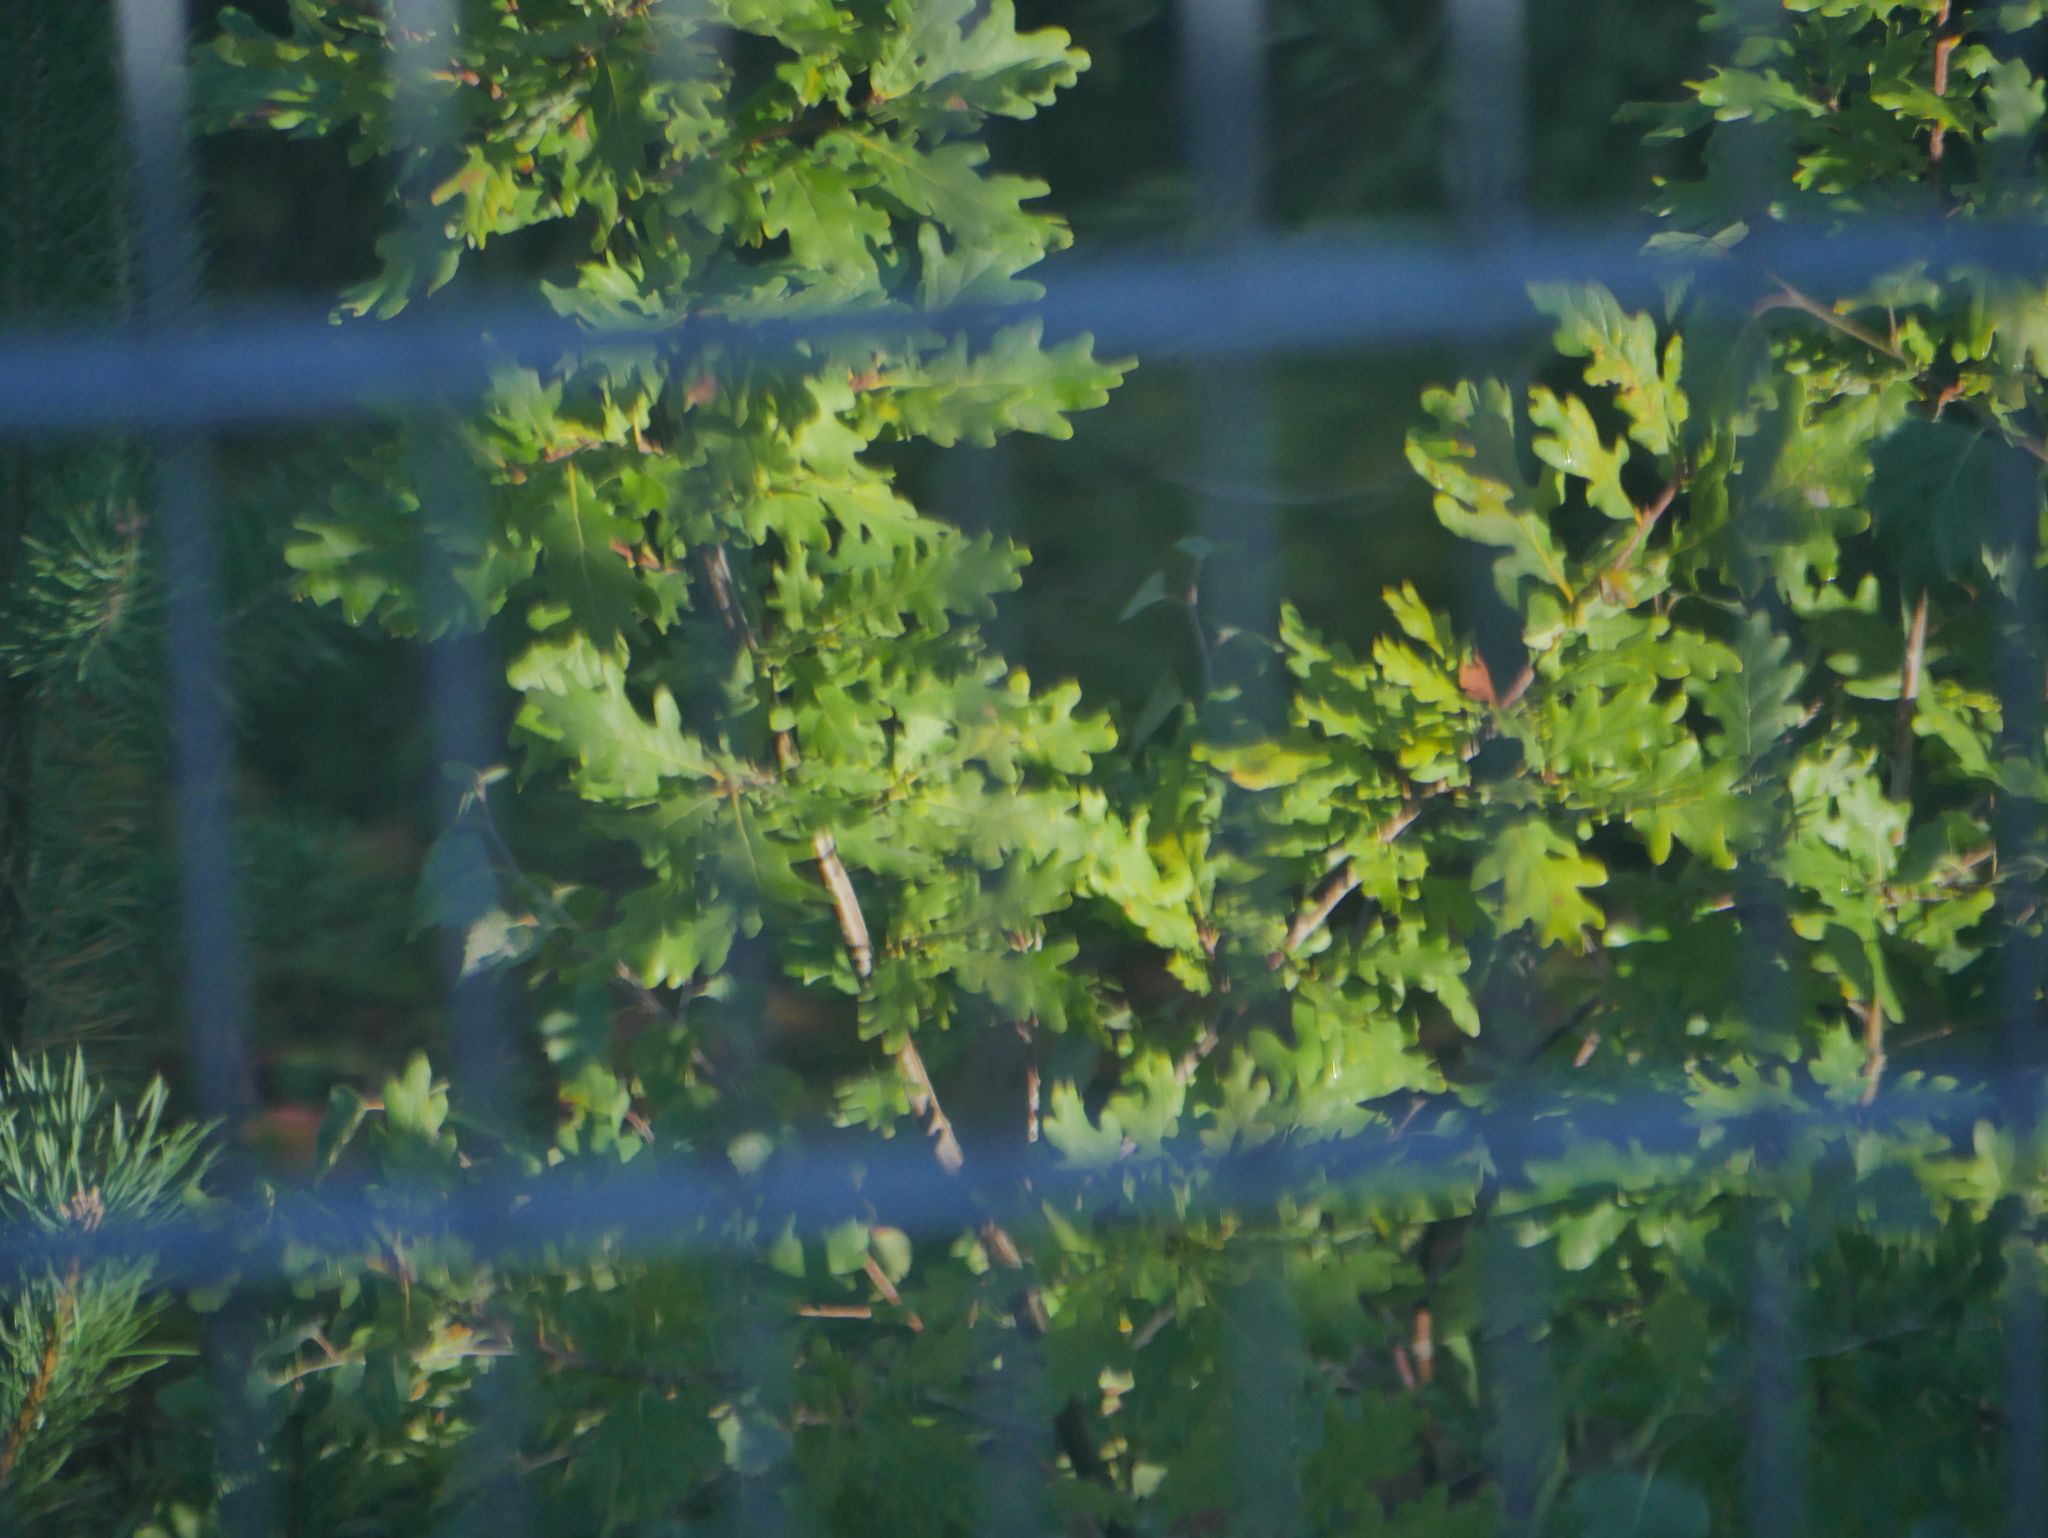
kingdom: Plantae
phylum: Tracheophyta
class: Magnoliopsida
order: Fagales
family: Fagaceae
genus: Quercus
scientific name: Quercus robur
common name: Pedunculate oak
